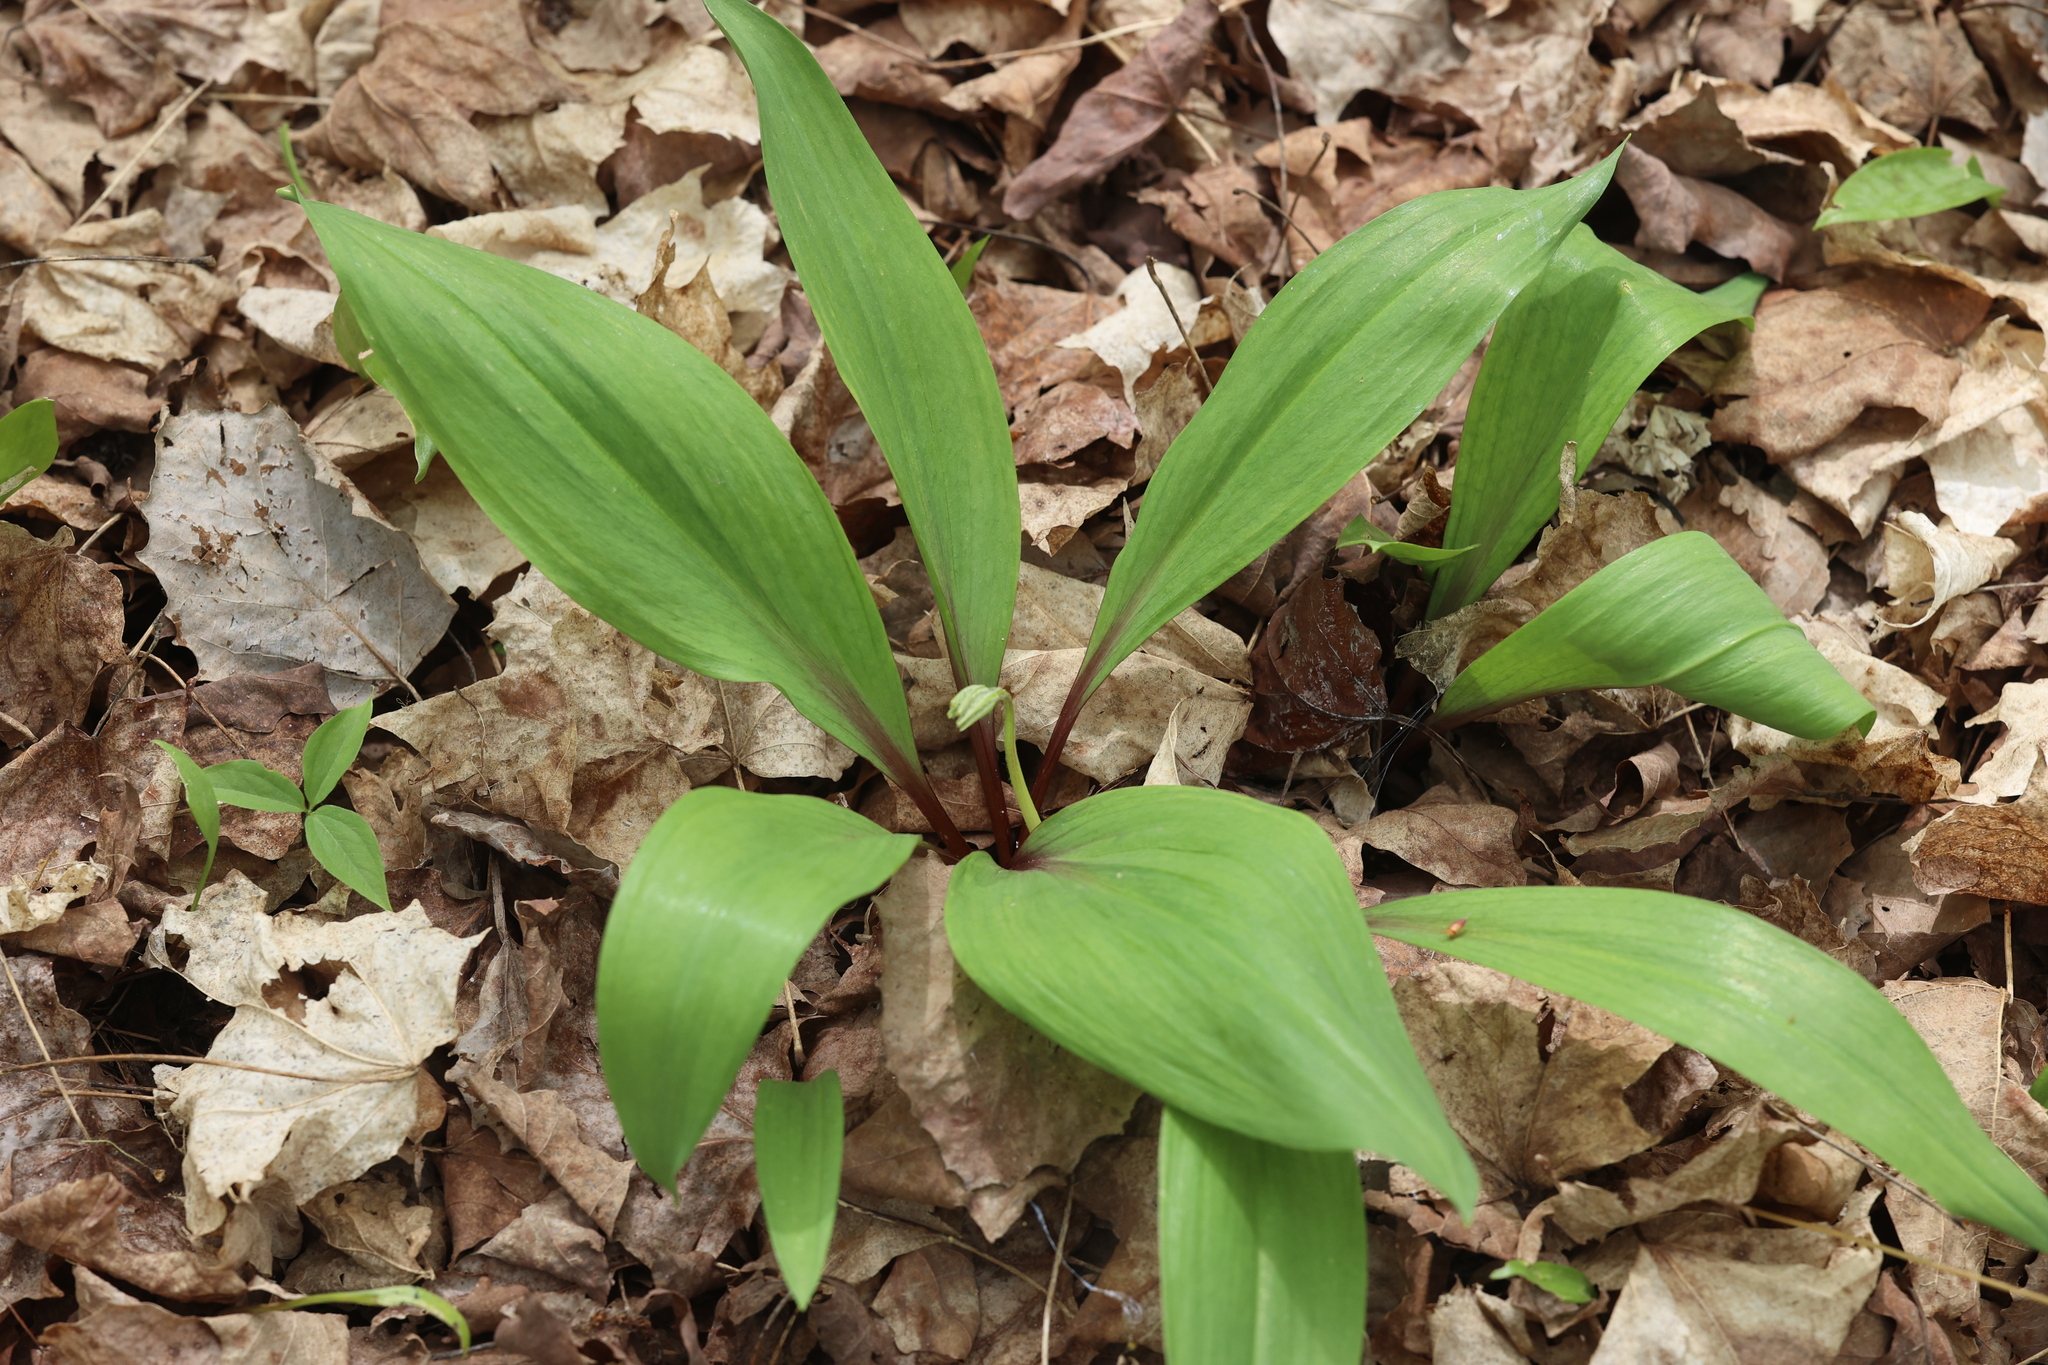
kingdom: Plantae
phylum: Tracheophyta
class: Liliopsida
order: Asparagales
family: Amaryllidaceae
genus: Allium
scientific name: Allium tricoccum
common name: Ramp
